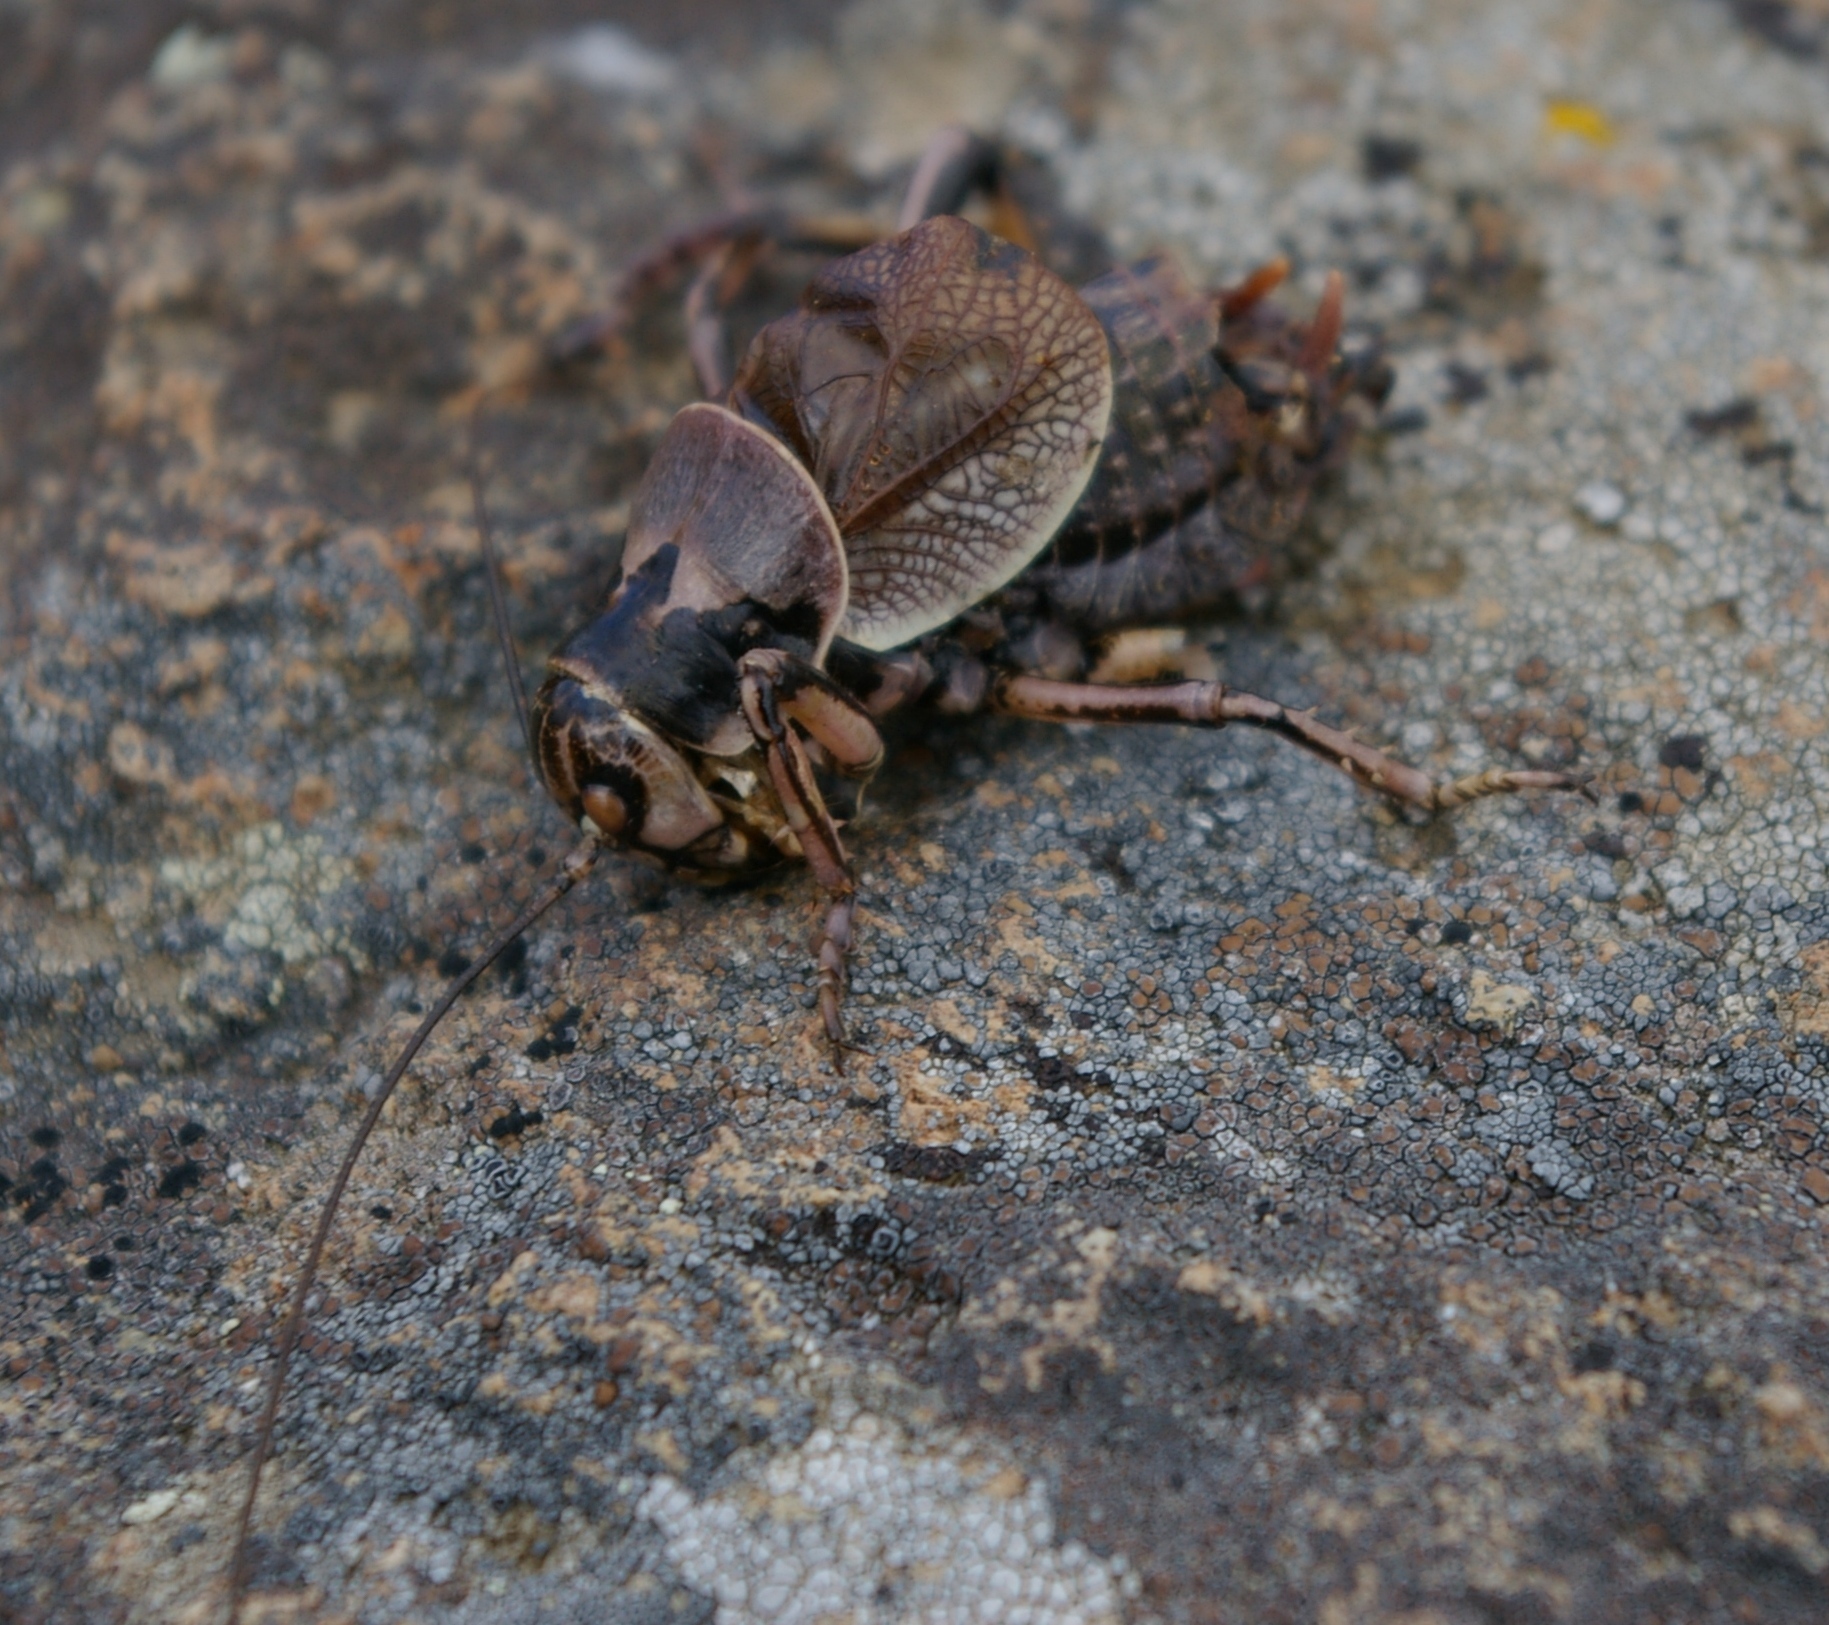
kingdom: Animalia
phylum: Arthropoda
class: Insecta
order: Orthoptera
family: Prophalangopsidae
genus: Cyphoderris
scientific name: Cyphoderris monstrosa
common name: Great grig
